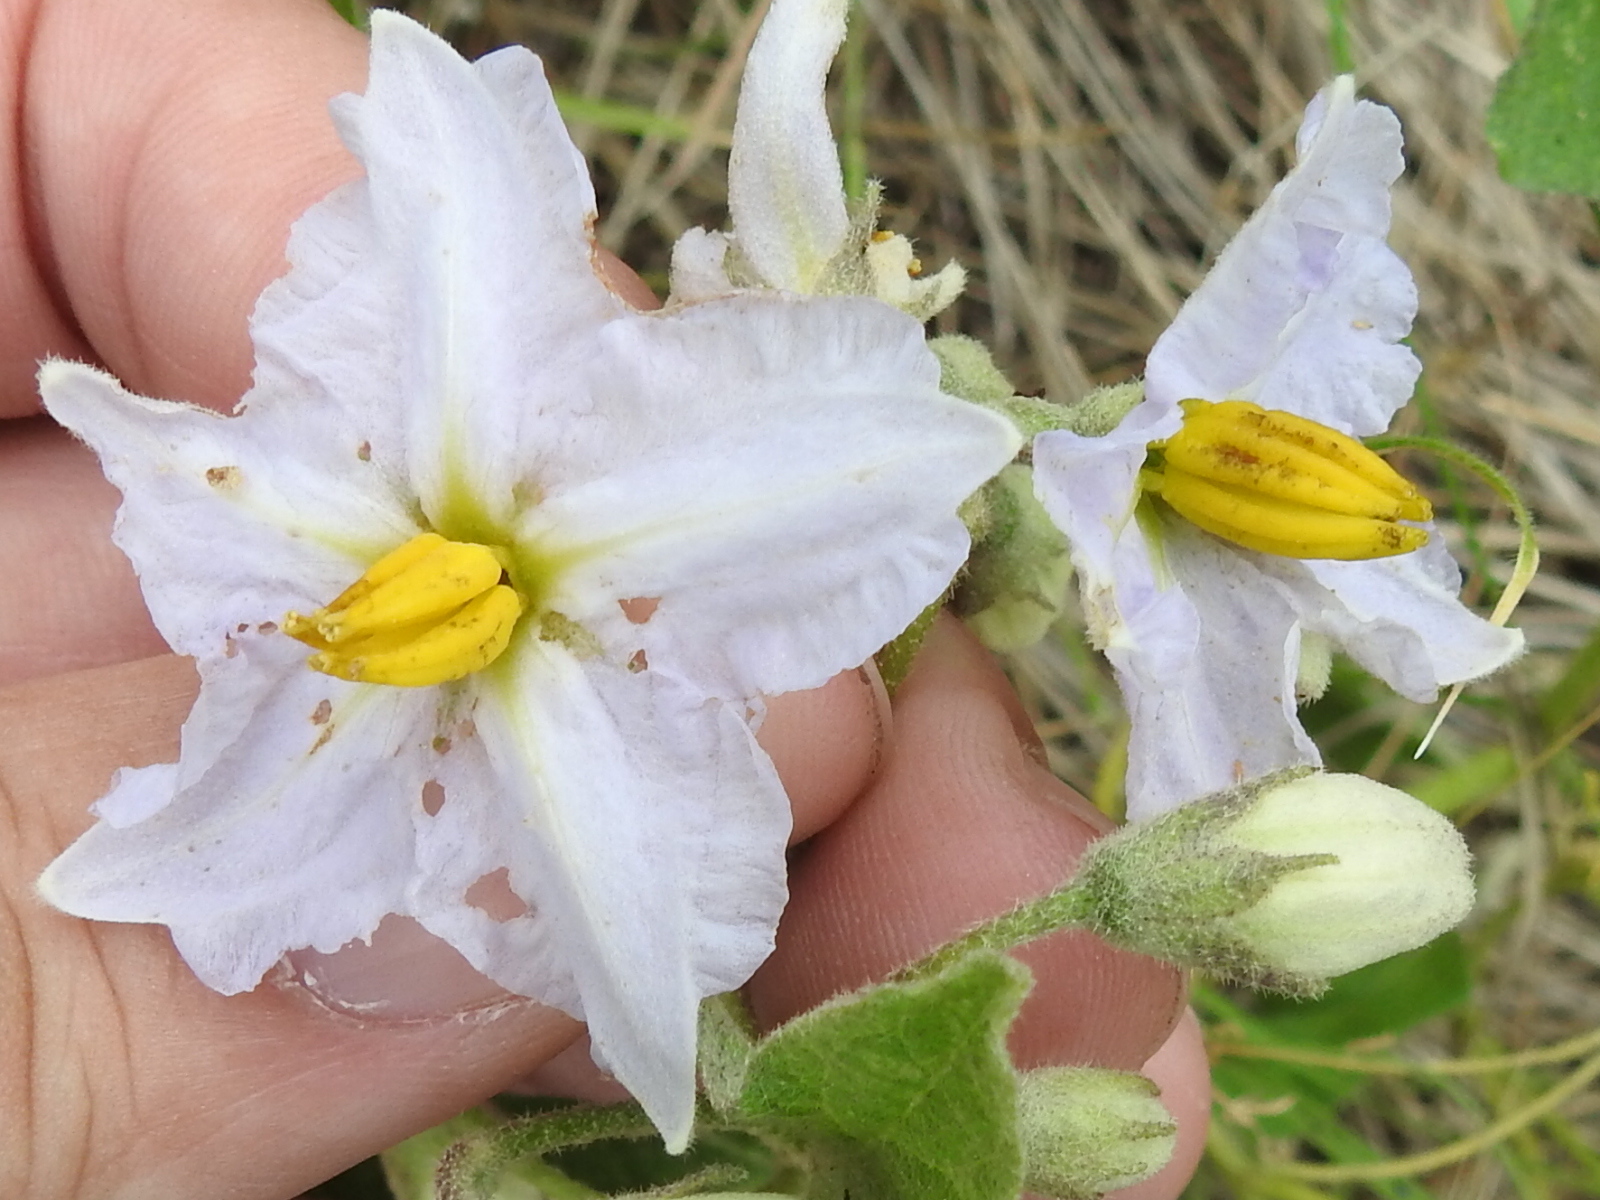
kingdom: Plantae
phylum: Tracheophyta
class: Magnoliopsida
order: Solanales
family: Solanaceae
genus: Solanum
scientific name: Solanum dimidiatum
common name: Carolina horse-nettle
